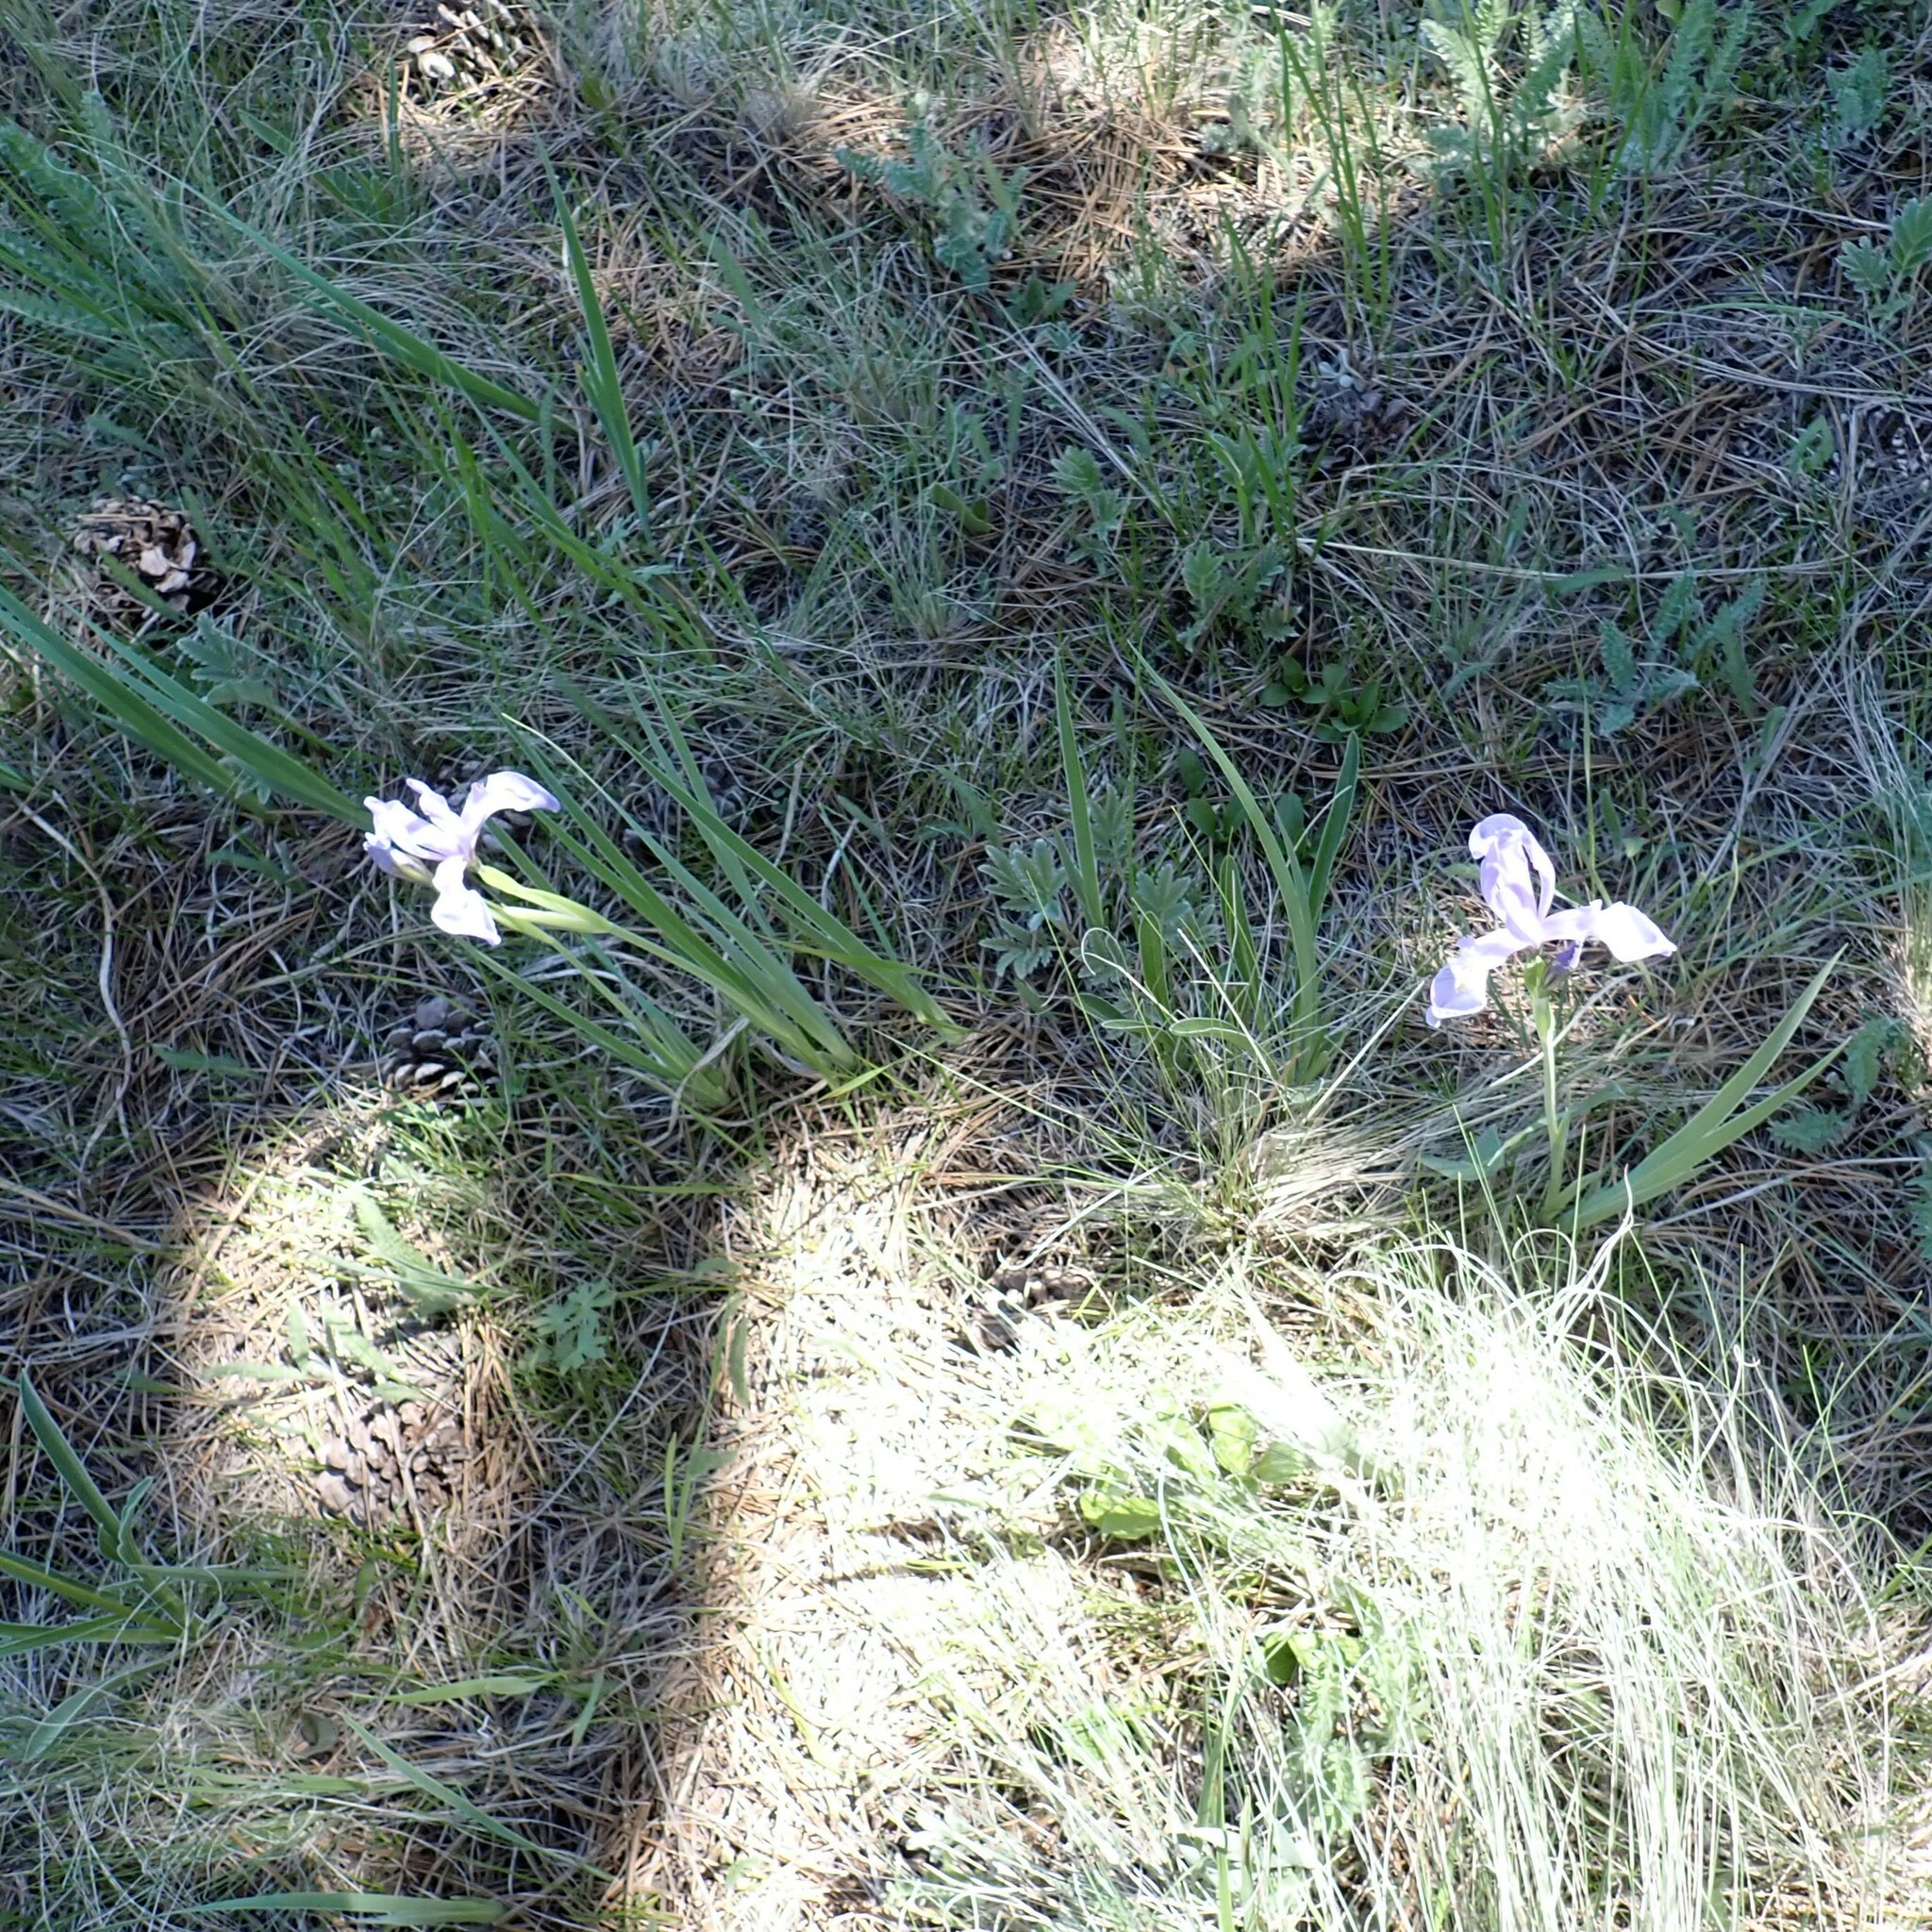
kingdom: Plantae
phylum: Tracheophyta
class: Liliopsida
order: Asparagales
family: Iridaceae
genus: Iris
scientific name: Iris missouriensis
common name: Rocky mountain iris
